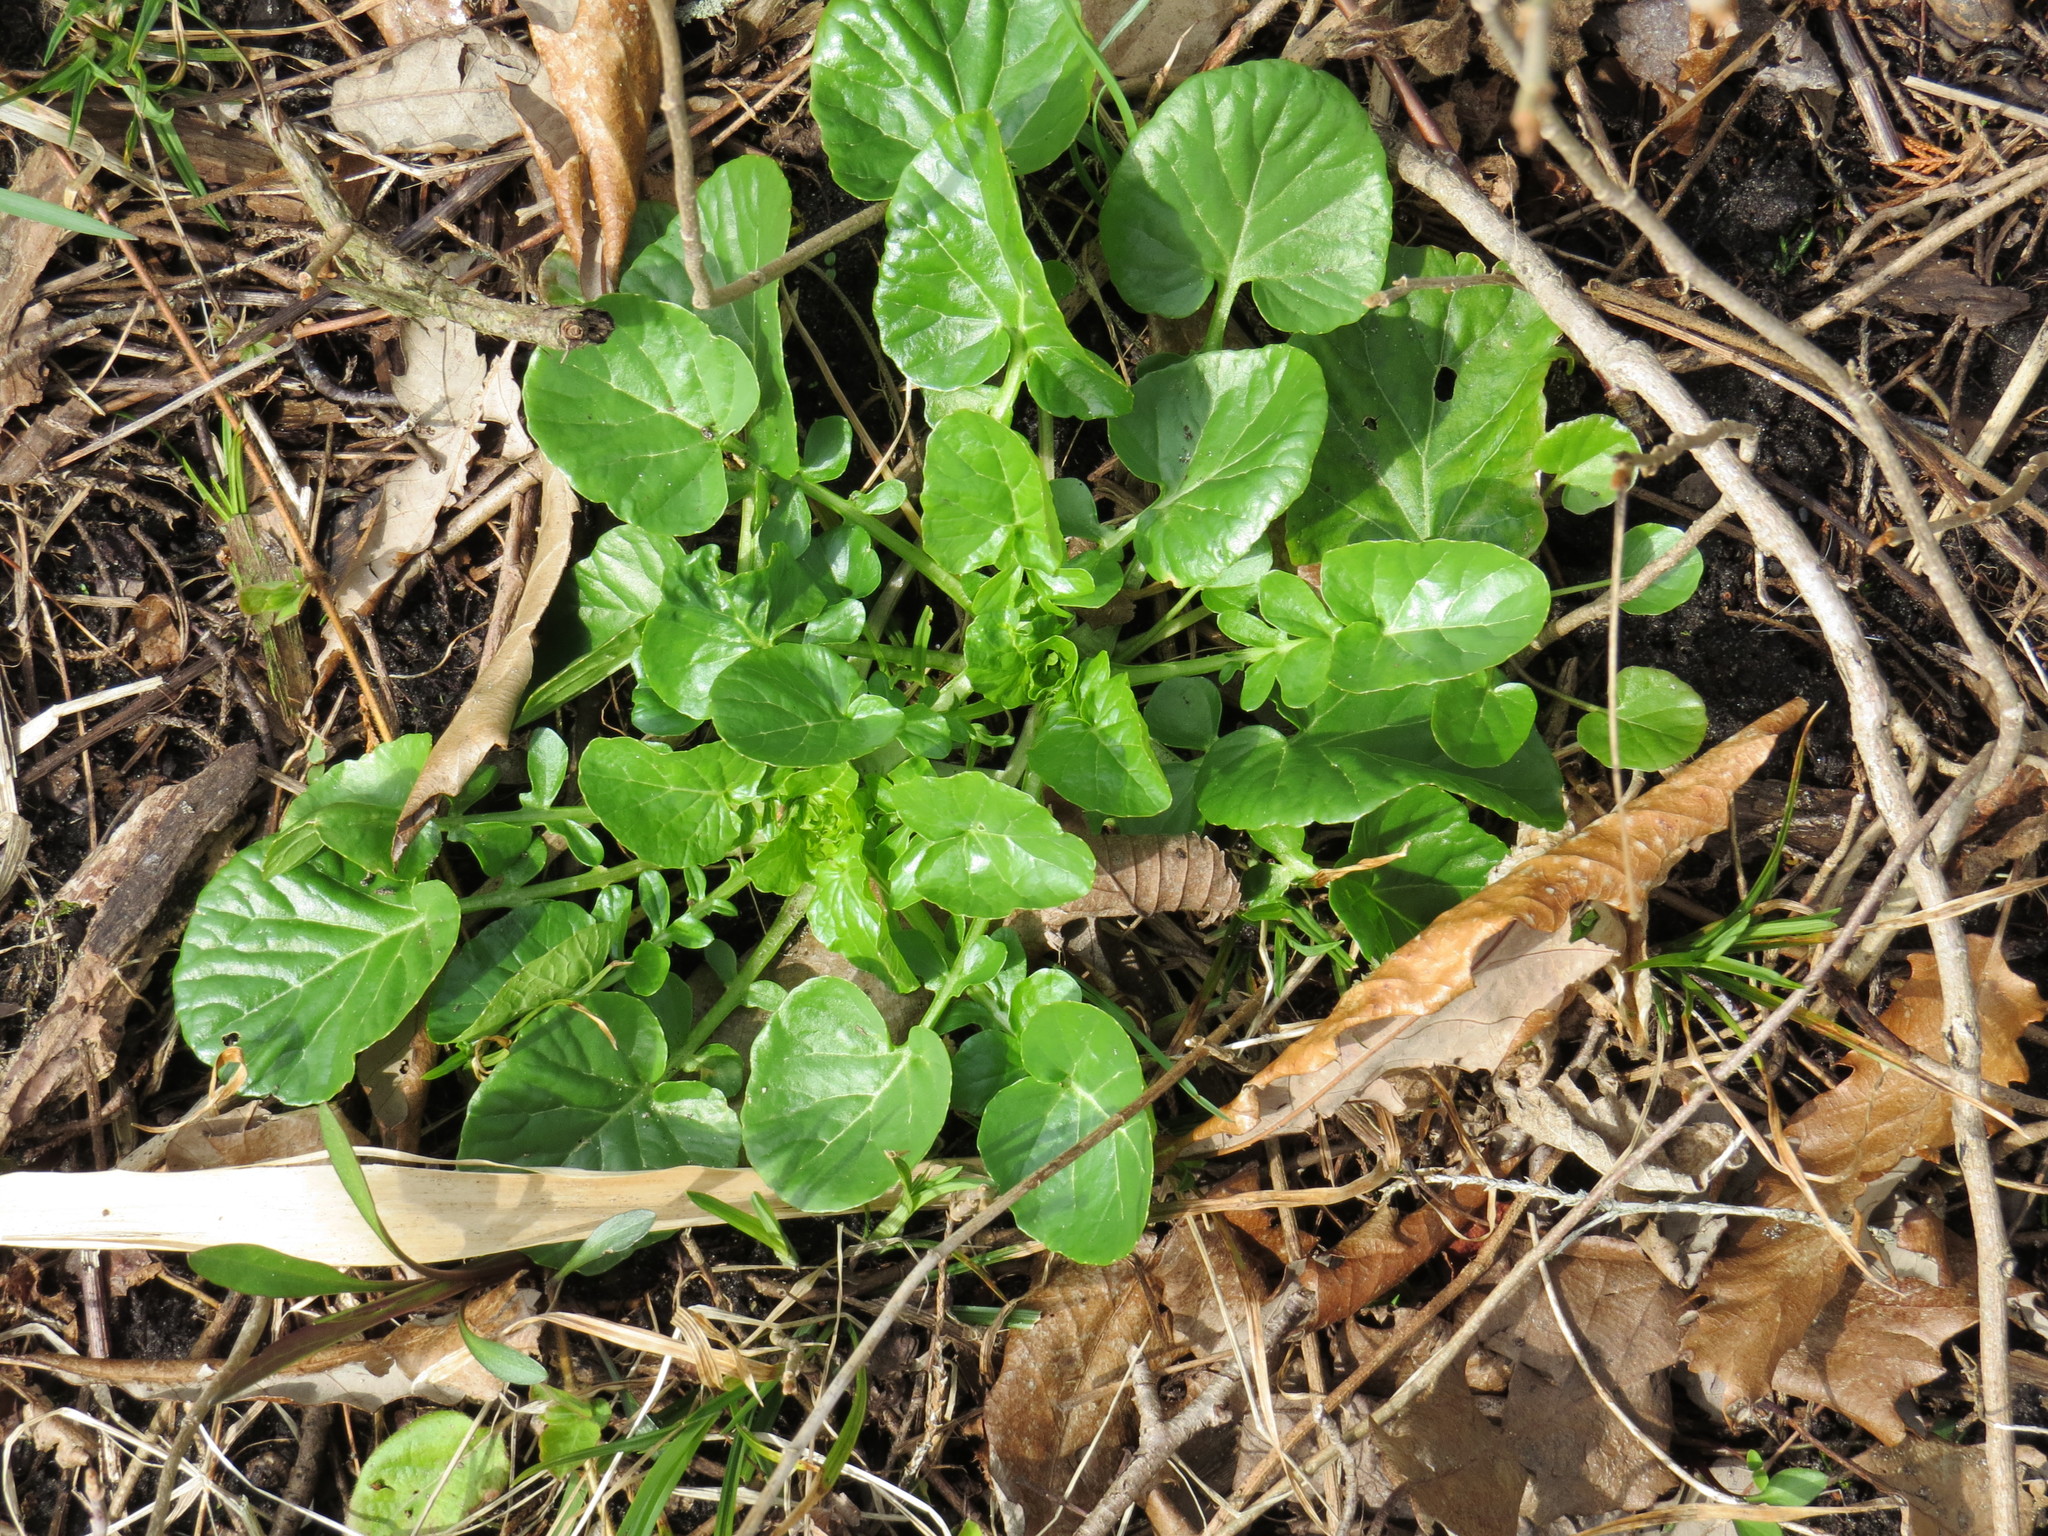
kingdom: Plantae
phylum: Tracheophyta
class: Magnoliopsida
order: Brassicales
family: Brassicaceae
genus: Barbarea
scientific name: Barbarea vulgaris
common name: Cressy-greens
